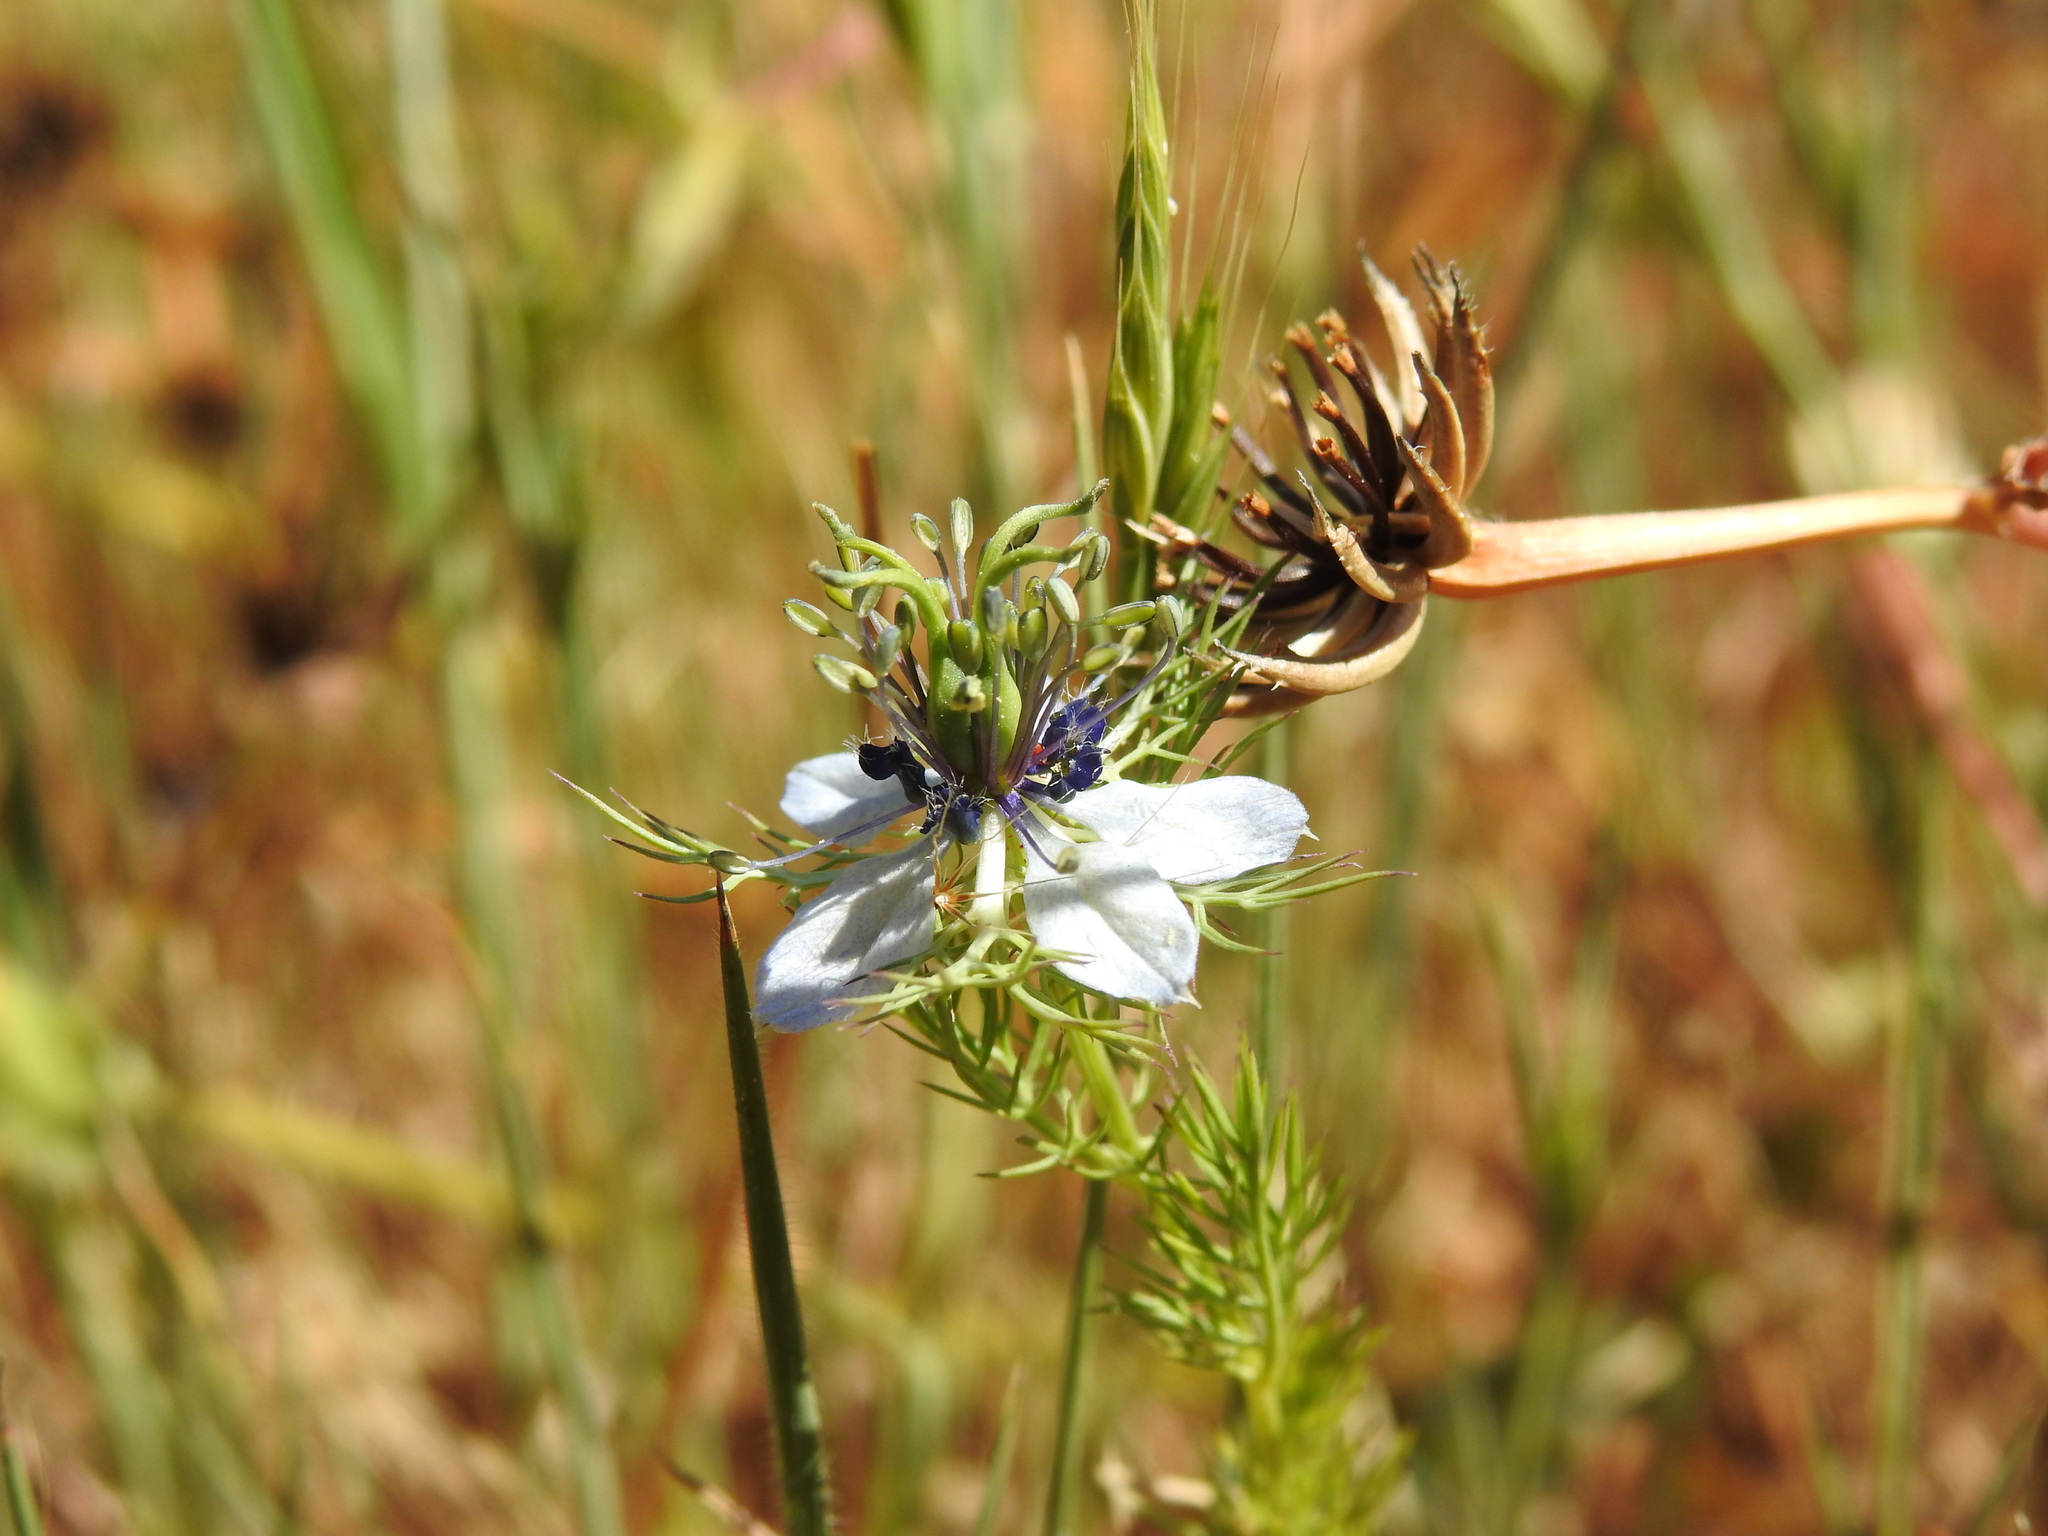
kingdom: Plantae
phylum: Tracheophyta
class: Magnoliopsida
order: Ranunculales
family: Ranunculaceae
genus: Nigella
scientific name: Nigella damascena
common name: Love-in-a-mist
